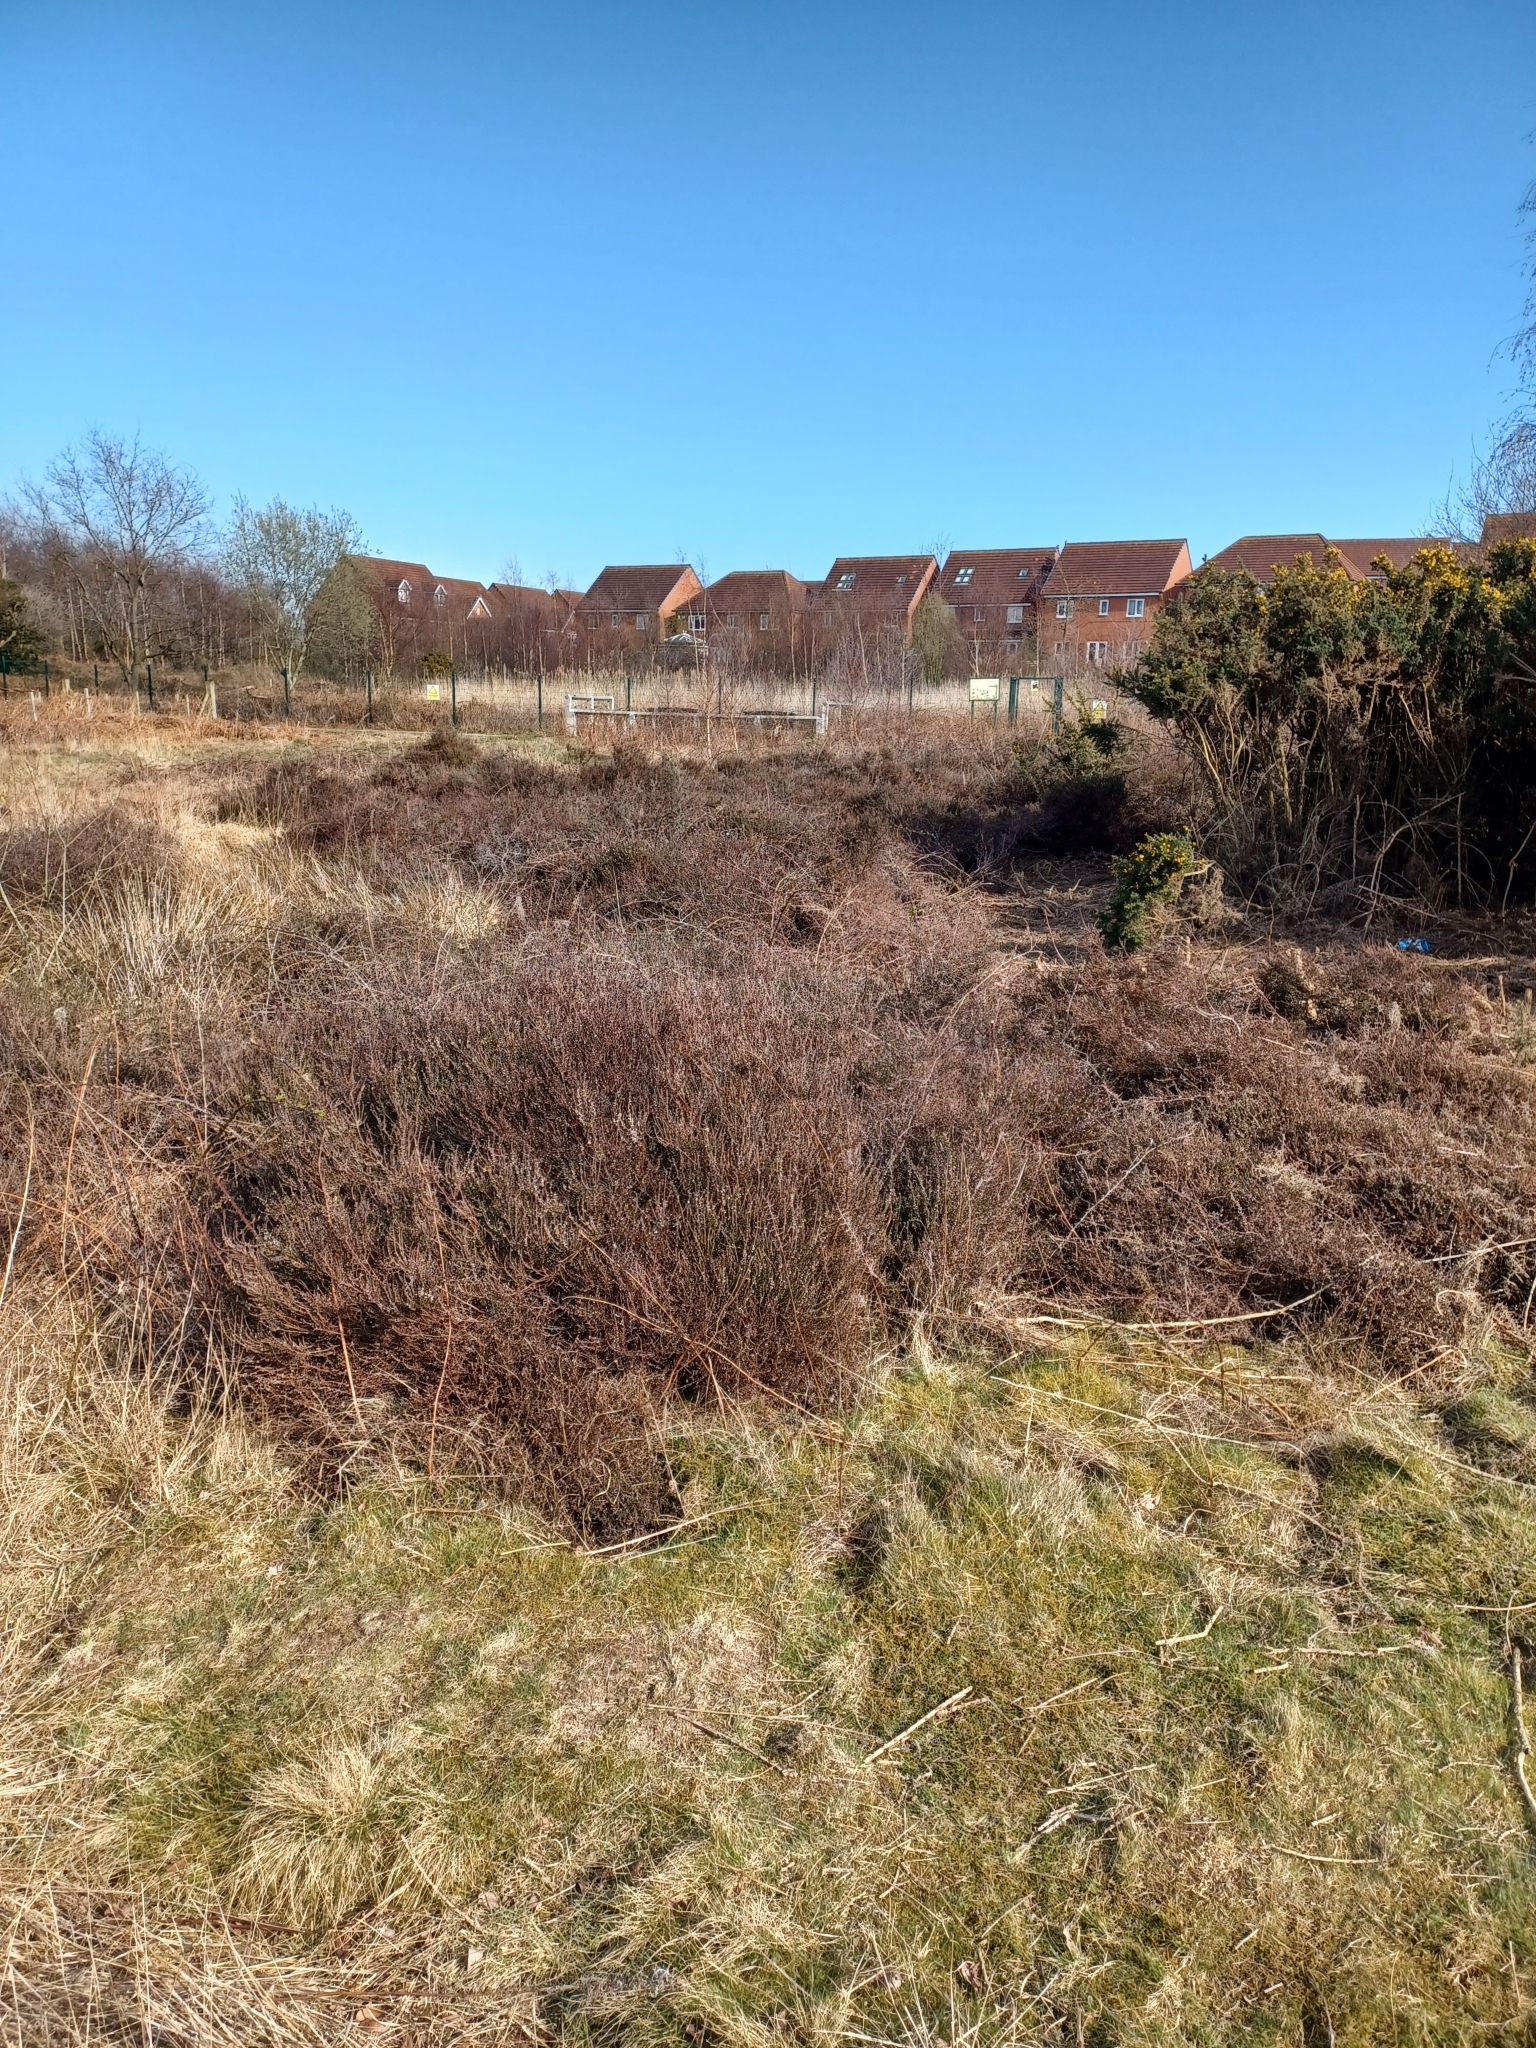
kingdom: Plantae
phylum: Tracheophyta
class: Magnoliopsida
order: Ericales
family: Ericaceae
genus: Calluna
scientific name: Calluna vulgaris
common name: Heather
